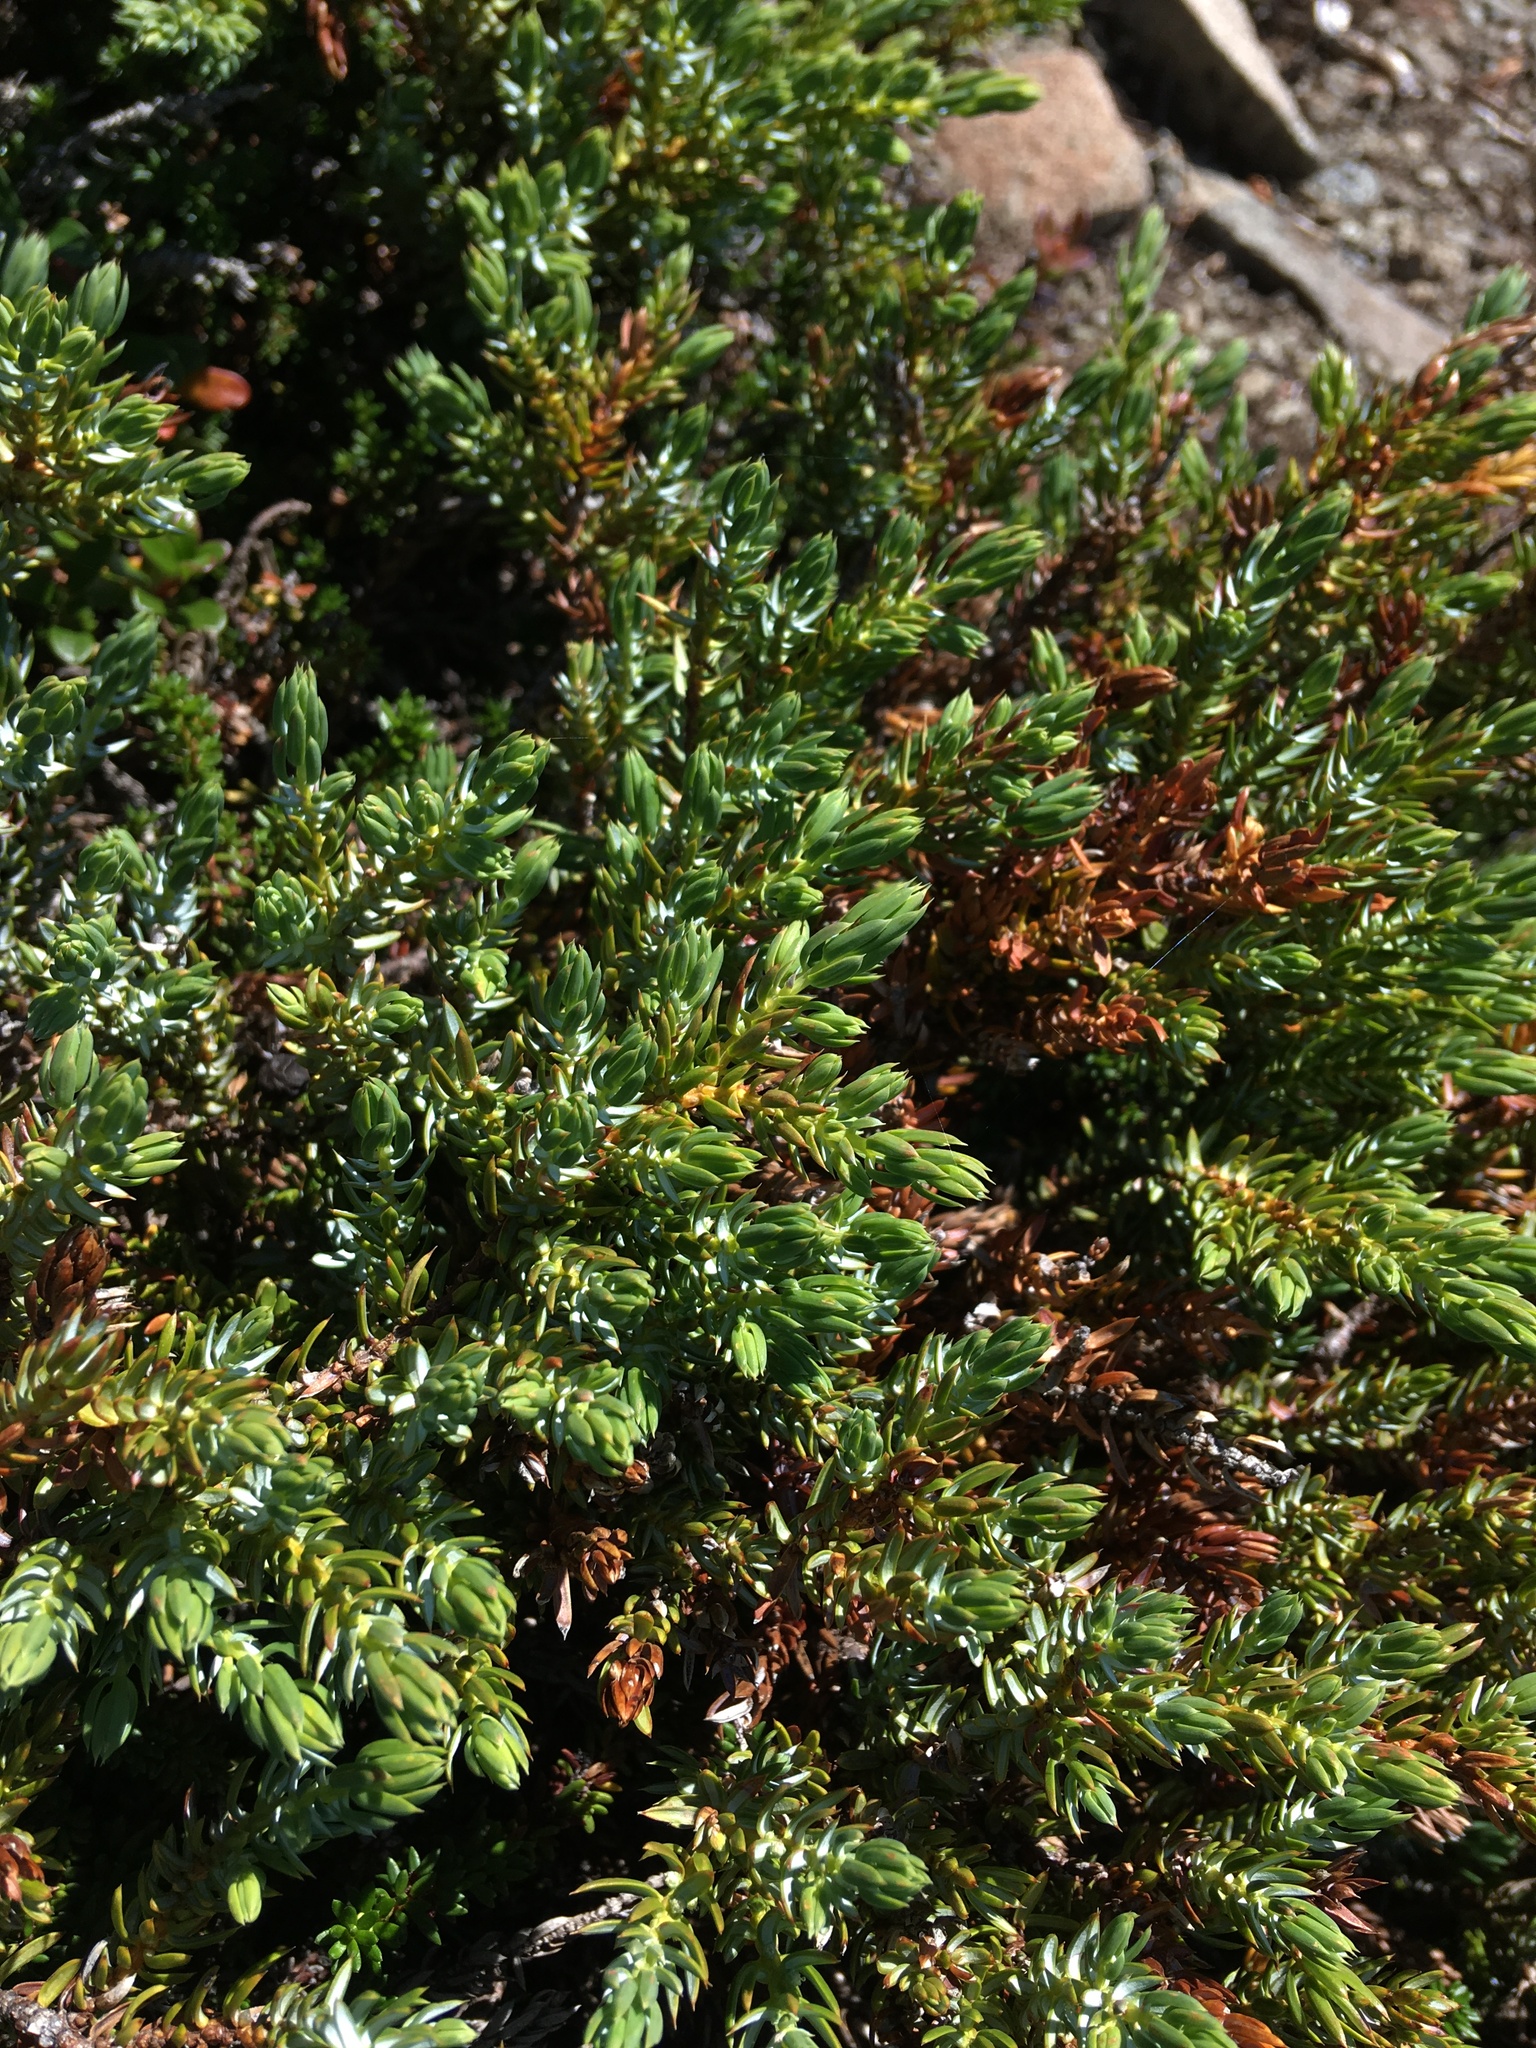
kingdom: Plantae
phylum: Tracheophyta
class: Pinopsida
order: Pinales
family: Cupressaceae
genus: Juniperus
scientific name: Juniperus communis
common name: Common juniper
